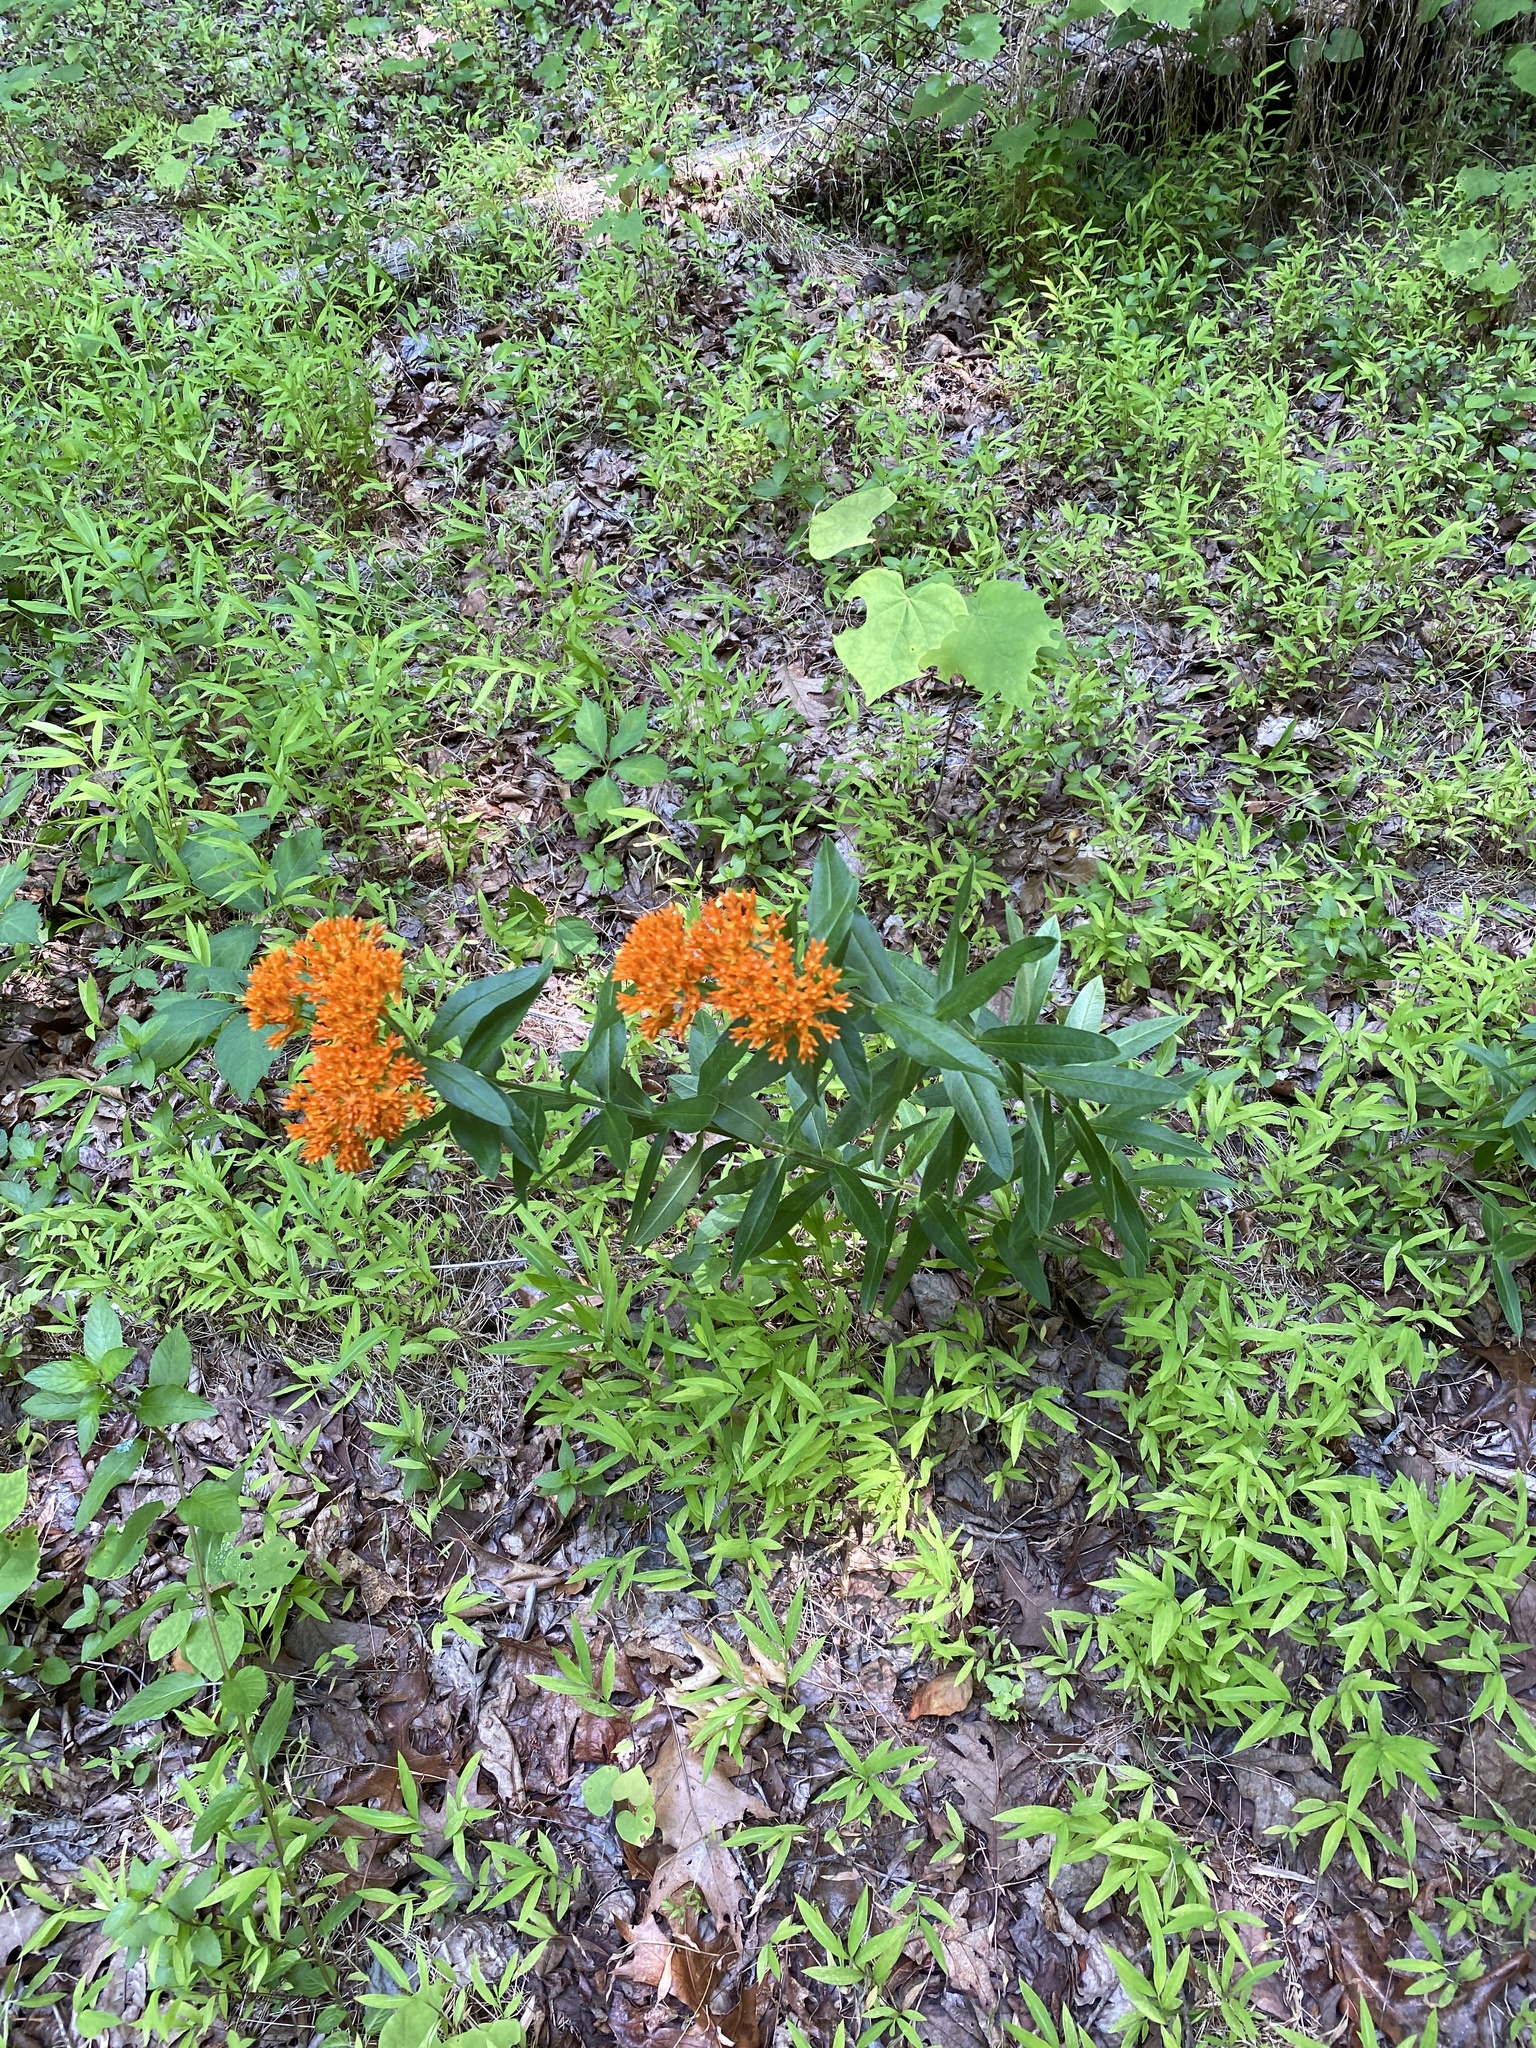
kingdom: Plantae
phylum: Tracheophyta
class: Magnoliopsida
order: Gentianales
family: Apocynaceae
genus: Asclepias
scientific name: Asclepias tuberosa
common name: Butterfly milkweed
